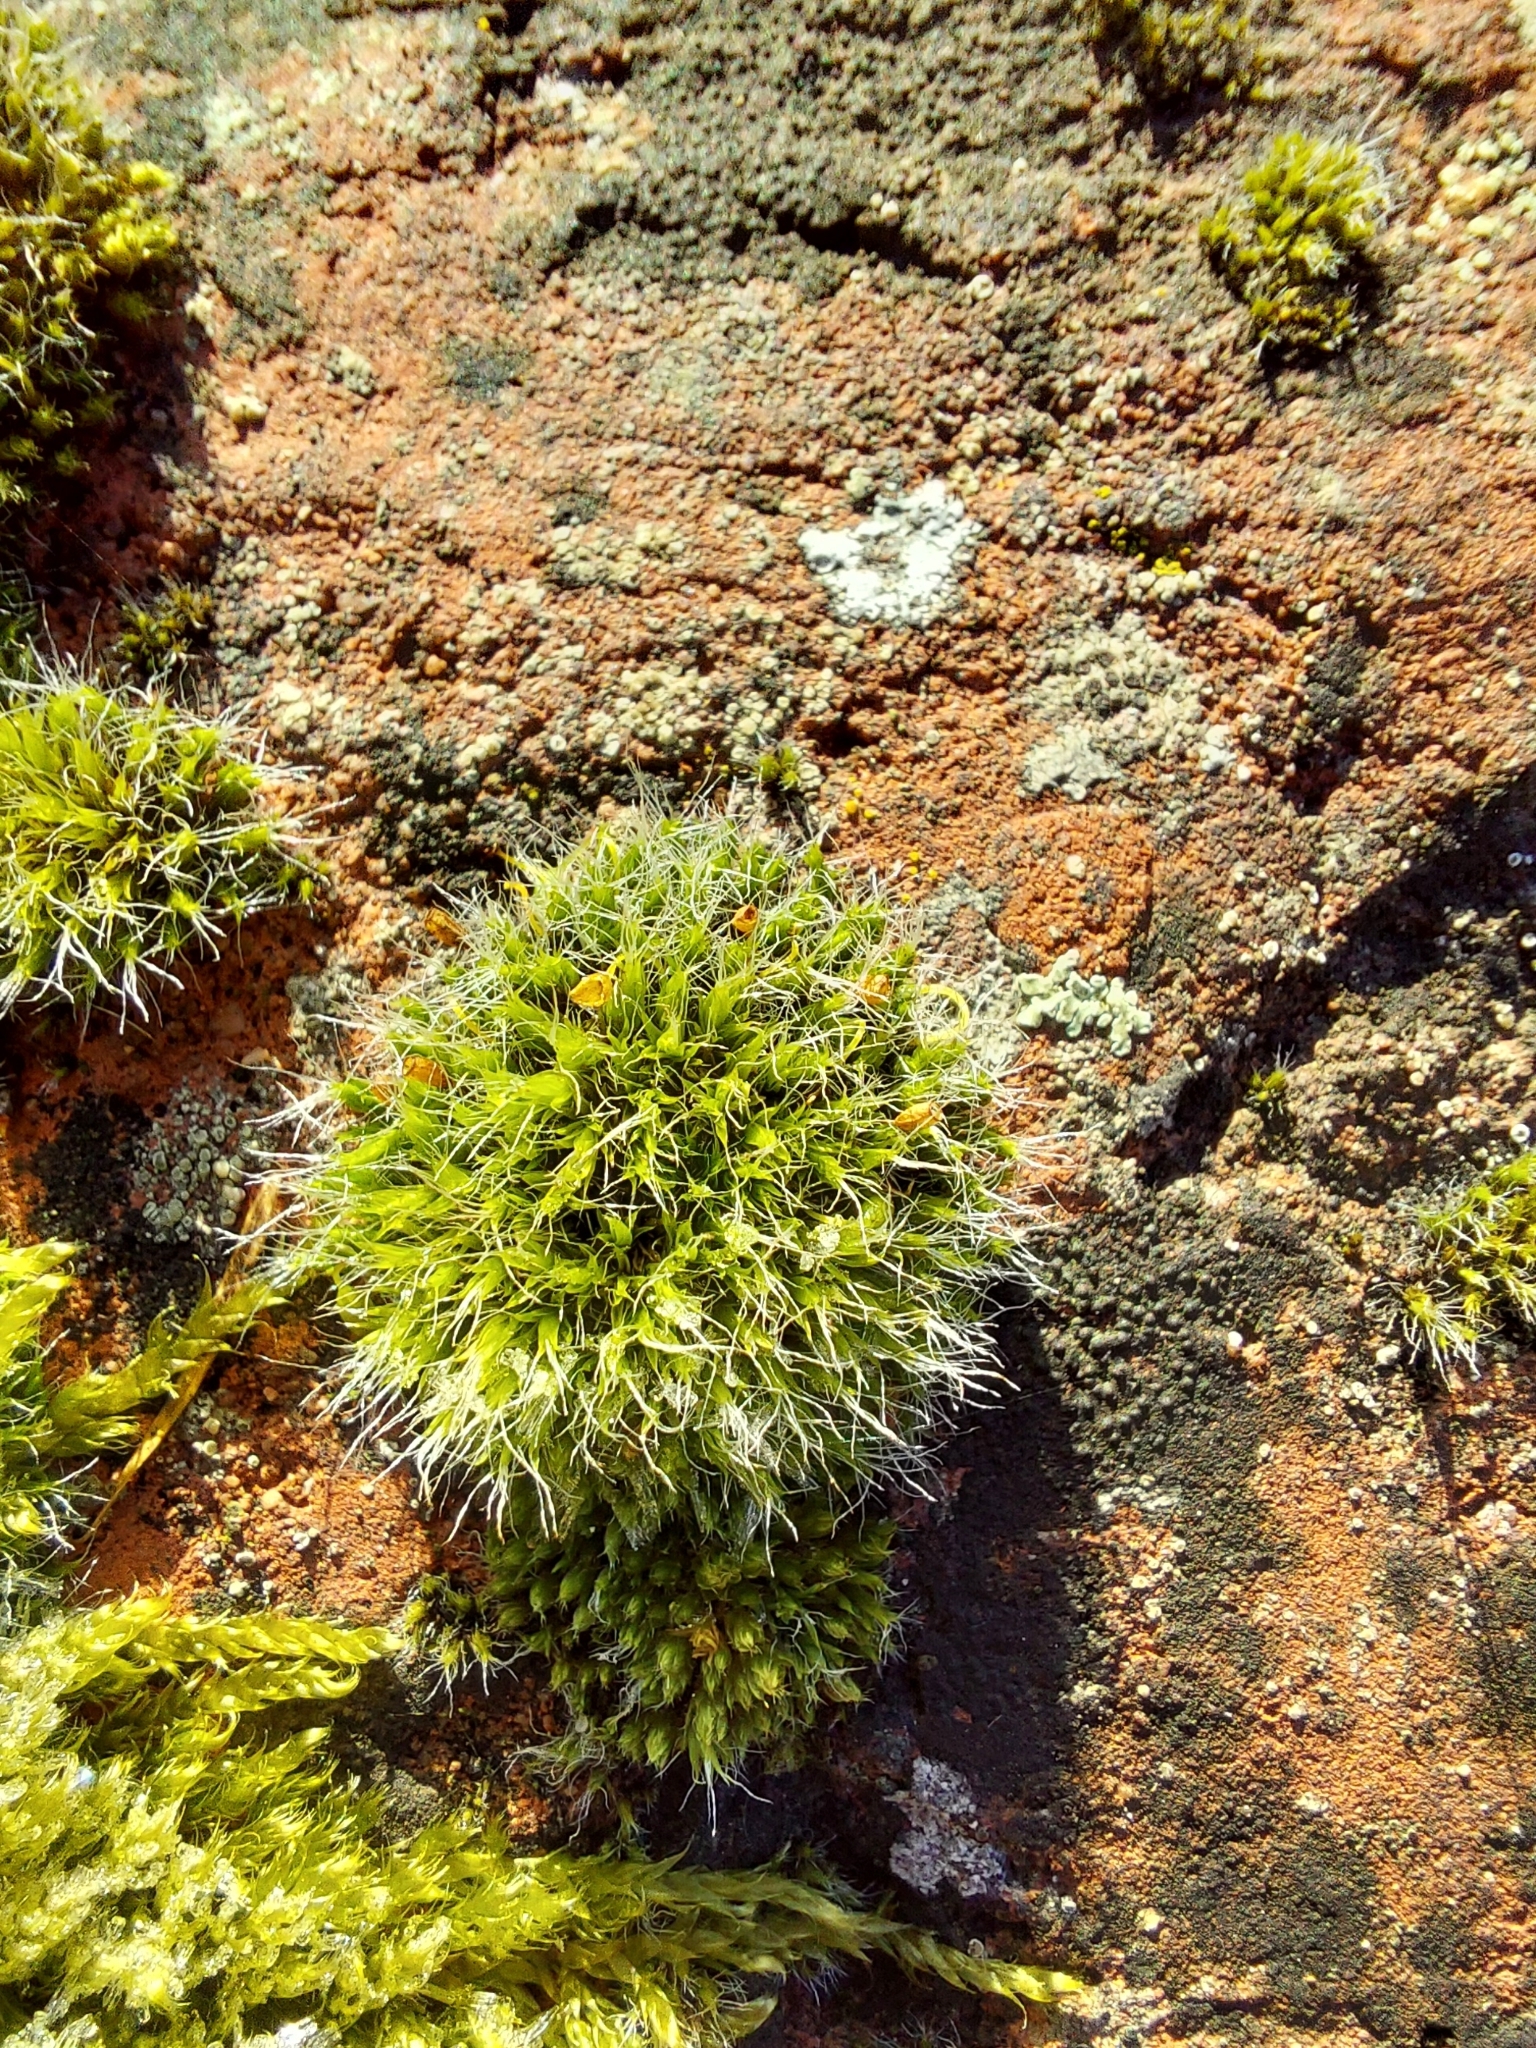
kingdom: Plantae
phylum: Bryophyta
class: Bryopsida
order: Grimmiales
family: Grimmiaceae
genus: Grimmia
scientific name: Grimmia pulvinata
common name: Grey-cushioned grimmia
